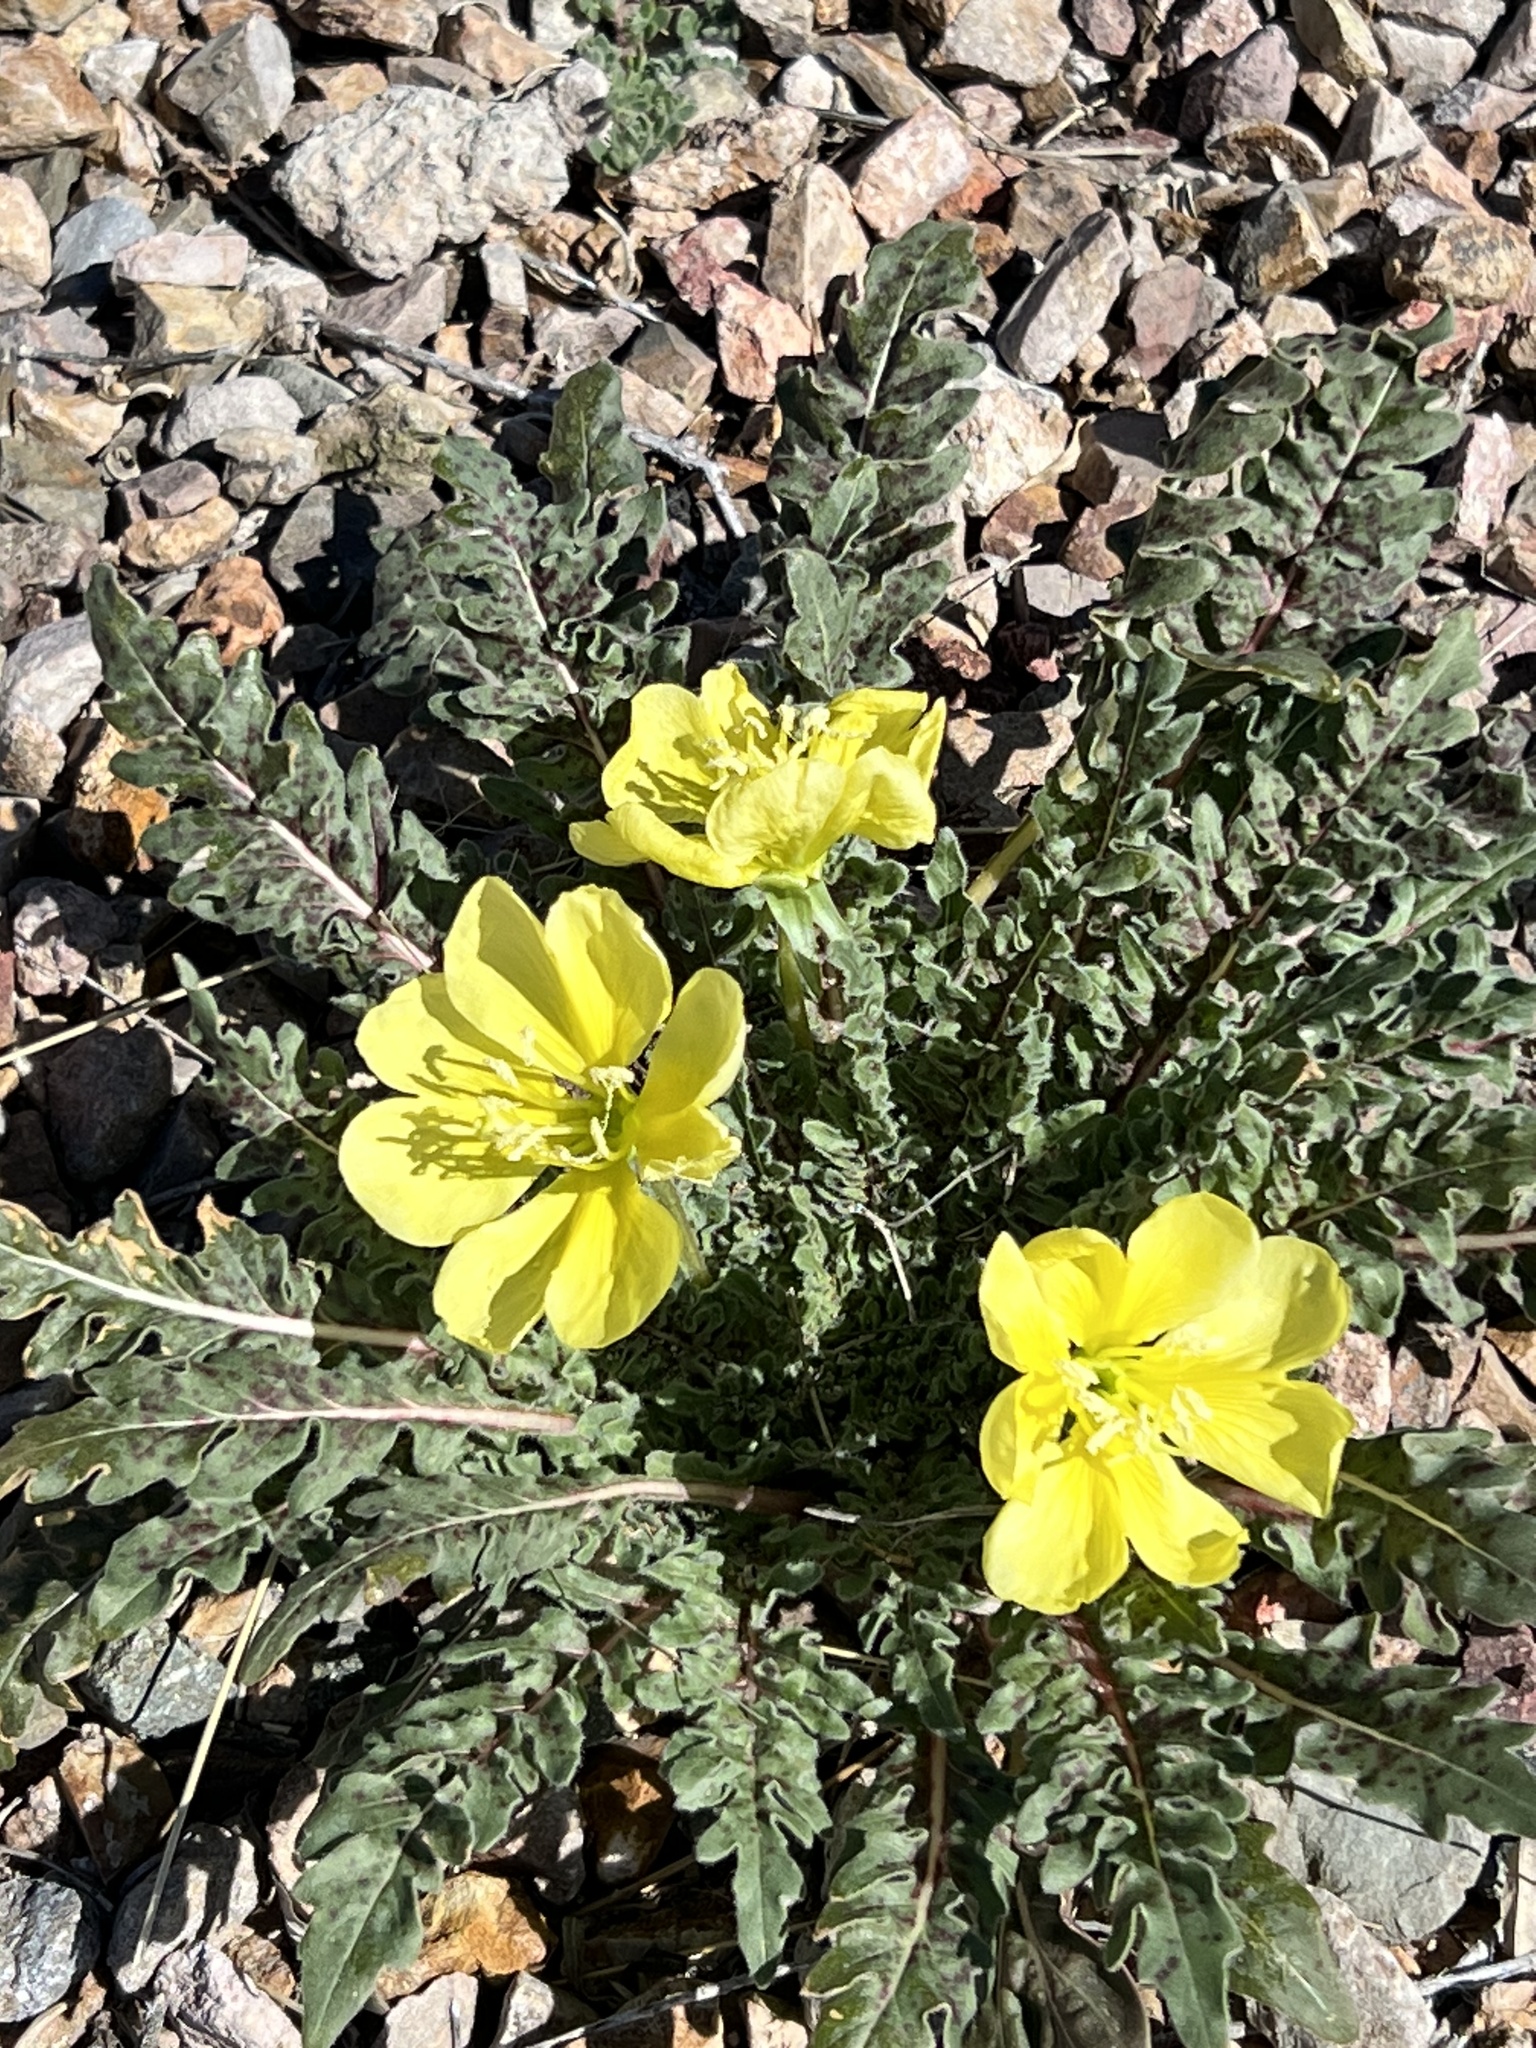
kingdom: Plantae
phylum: Tracheophyta
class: Magnoliopsida
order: Myrtales
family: Onagraceae
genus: Oenothera
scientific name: Oenothera primiveris
